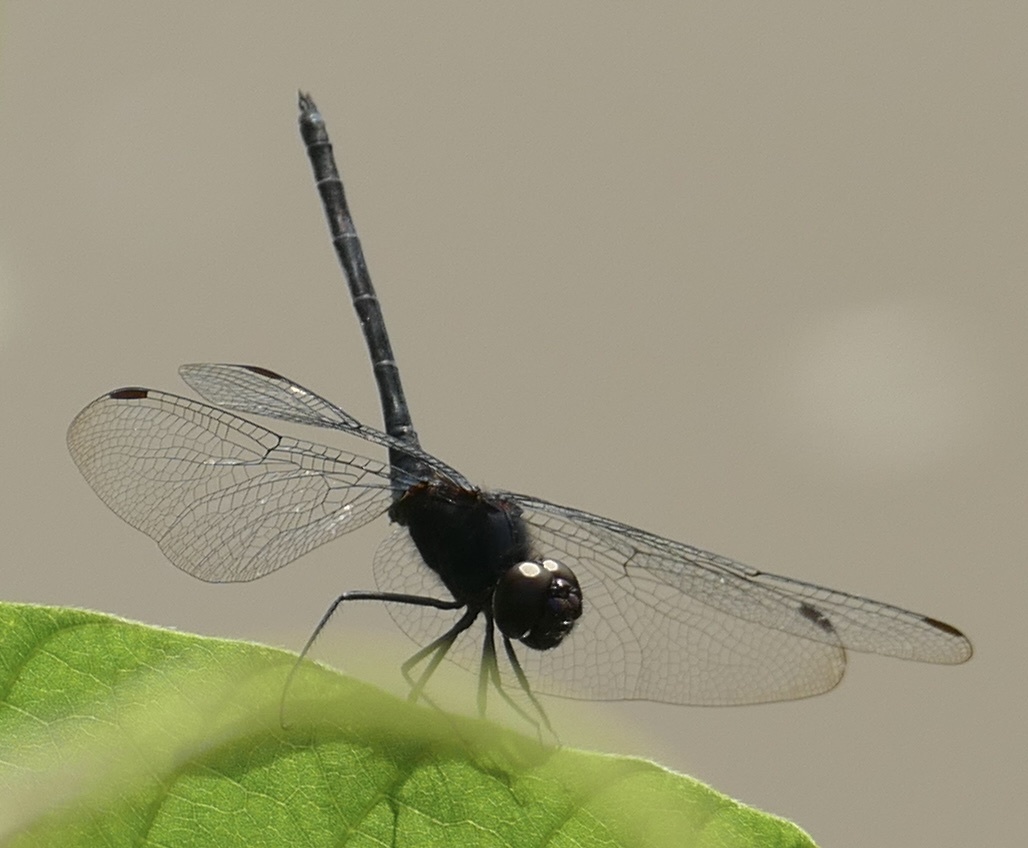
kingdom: Animalia
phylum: Arthropoda
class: Insecta
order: Odonata
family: Libellulidae
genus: Trithemis
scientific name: Trithemis dichroa
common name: Black dropwing
